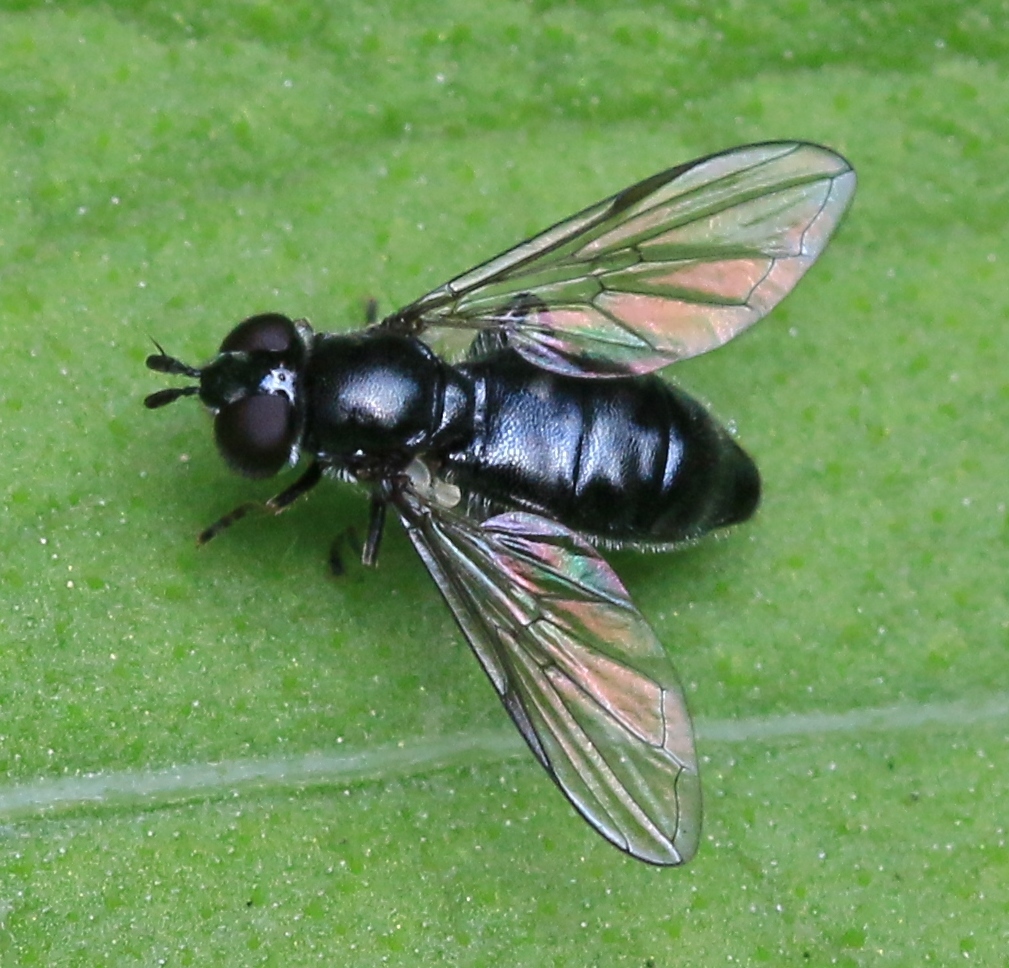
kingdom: Animalia
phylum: Arthropoda
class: Insecta
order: Diptera
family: Syrphidae
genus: Pipiza
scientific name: Pipiza
